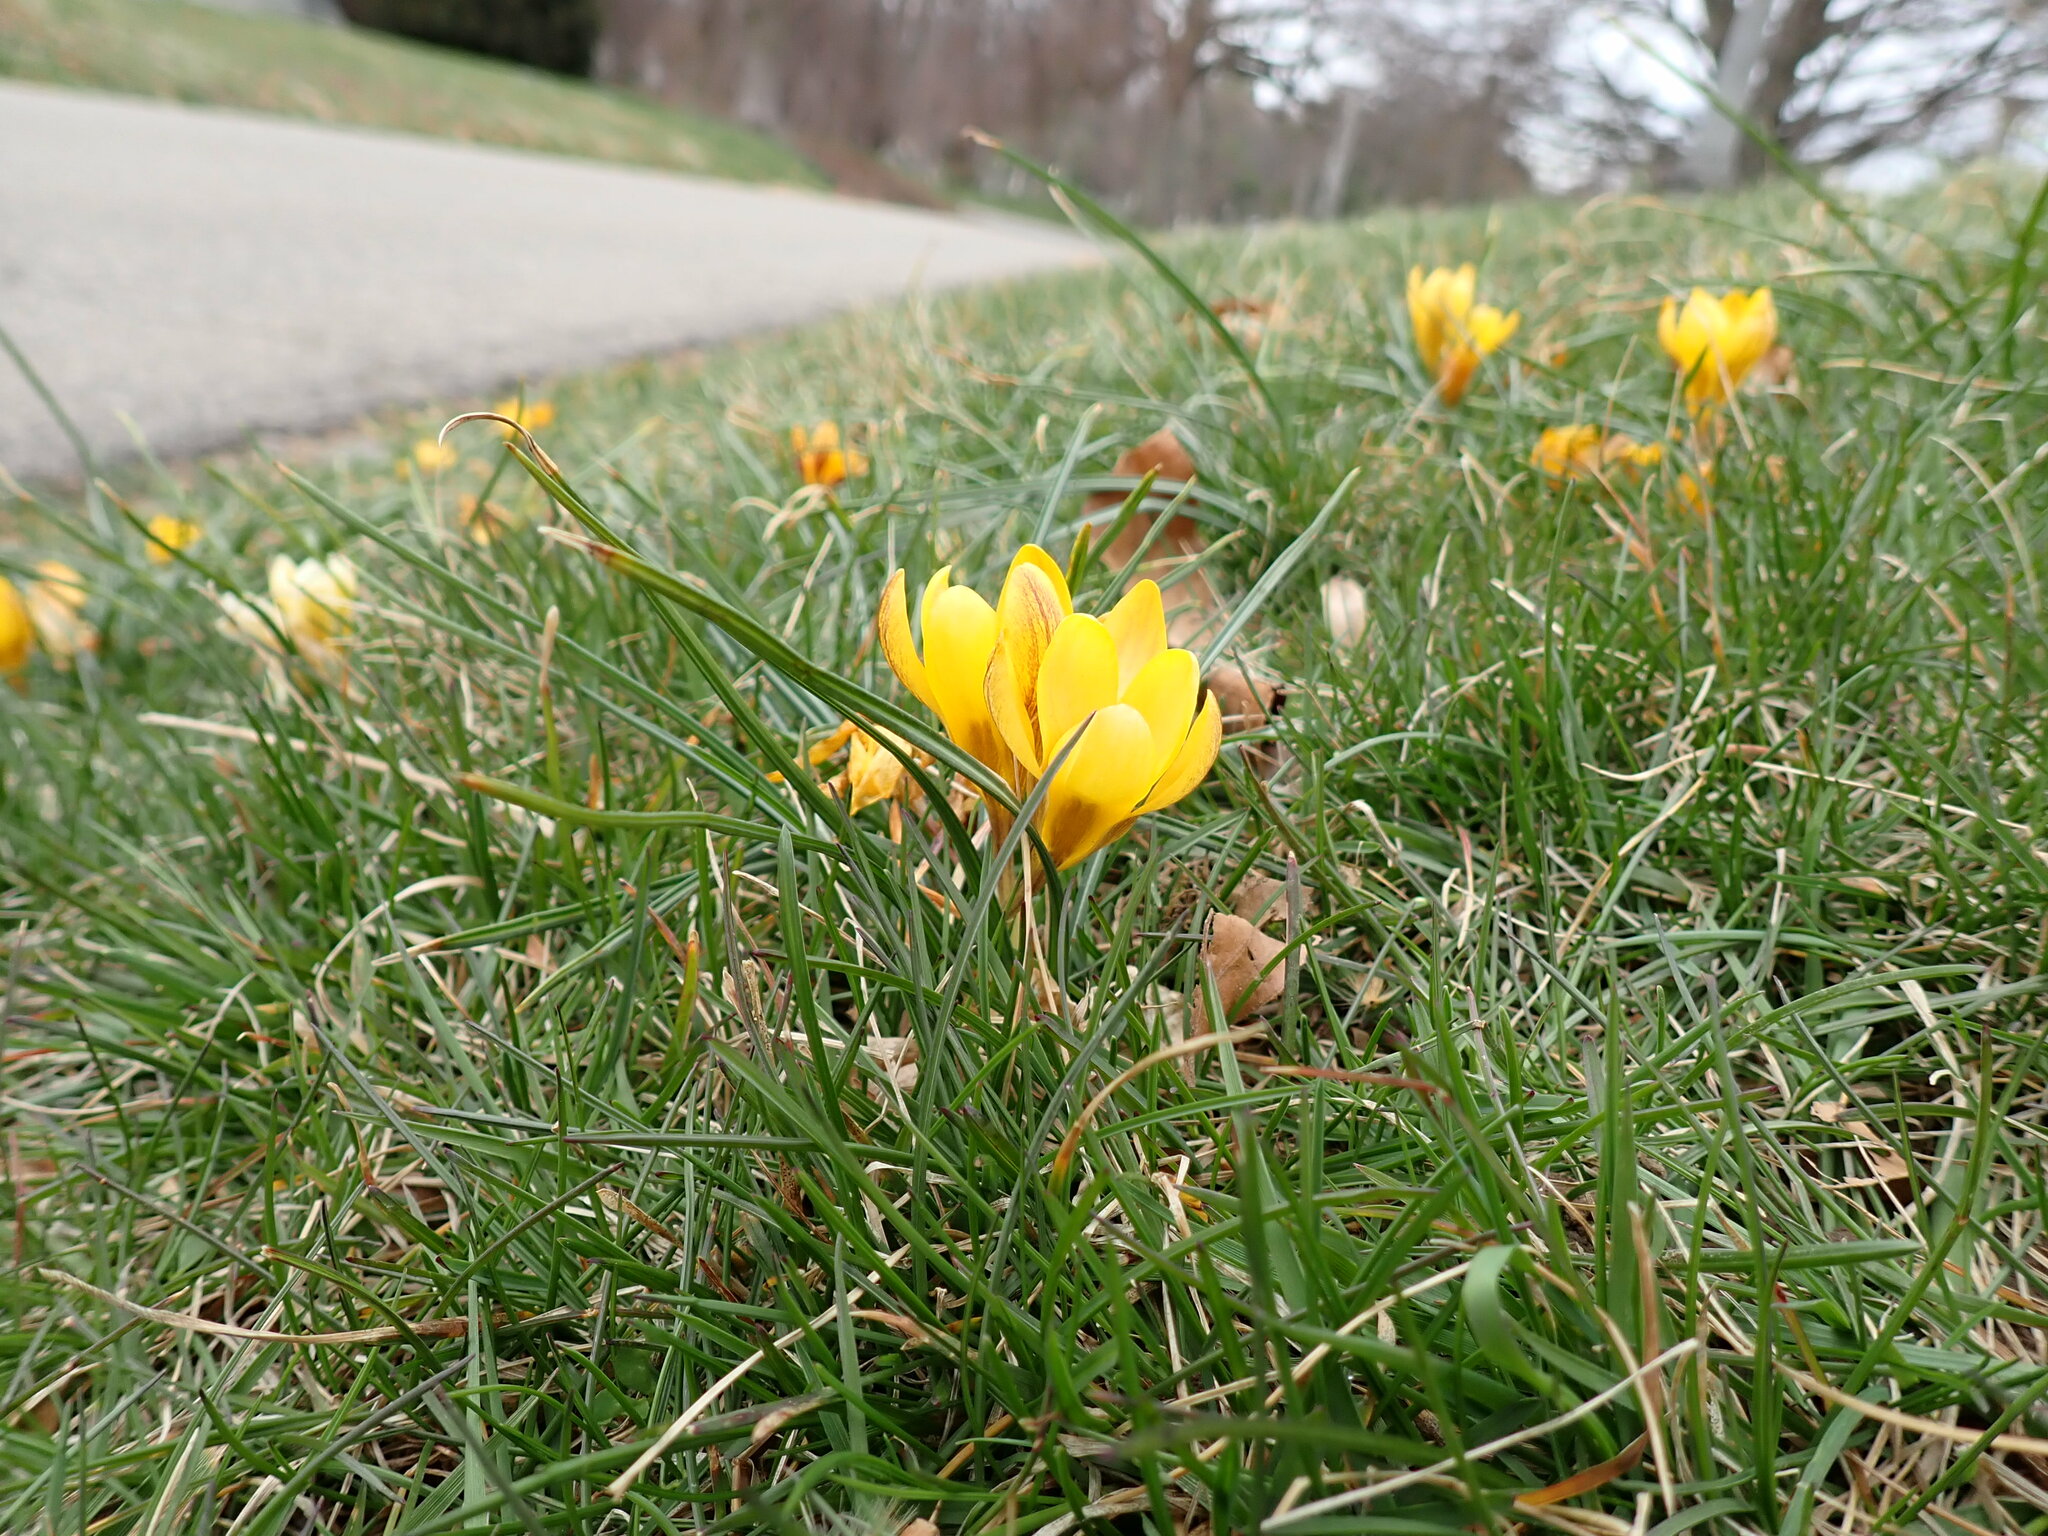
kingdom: Plantae
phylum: Tracheophyta
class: Liliopsida
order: Asparagales
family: Iridaceae
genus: Crocus
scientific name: Crocus chrysanthus
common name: Golden crocus
